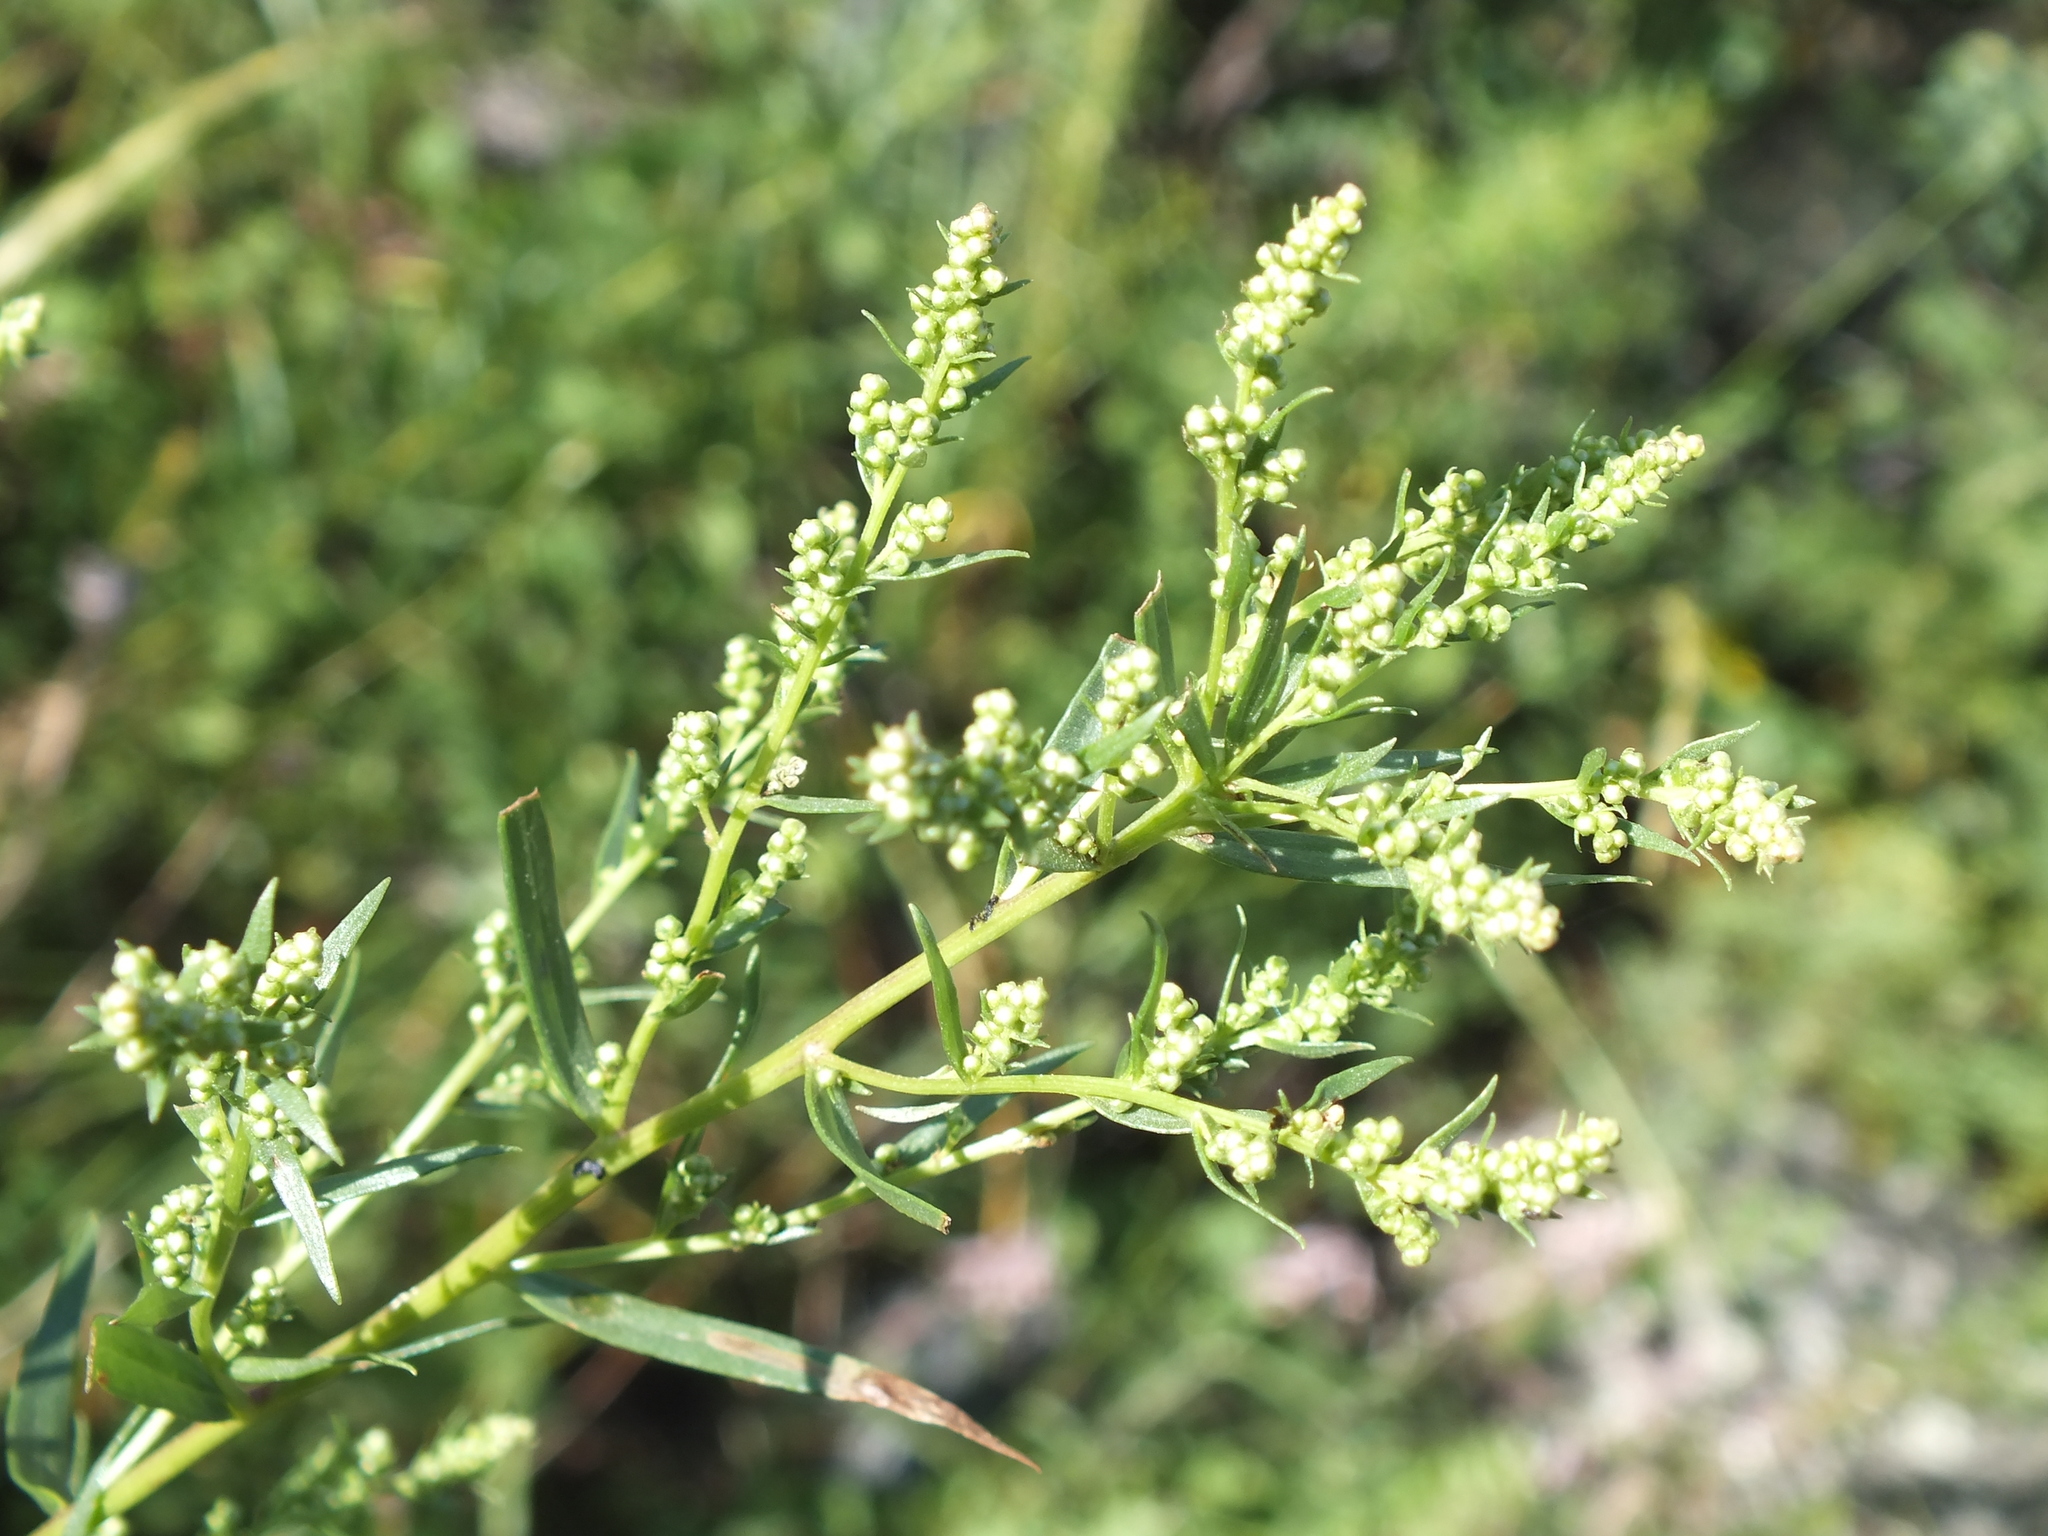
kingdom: Plantae
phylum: Tracheophyta
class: Magnoliopsida
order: Asterales
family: Asteraceae
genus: Artemisia
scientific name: Artemisia dracunculus
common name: Tarragon
